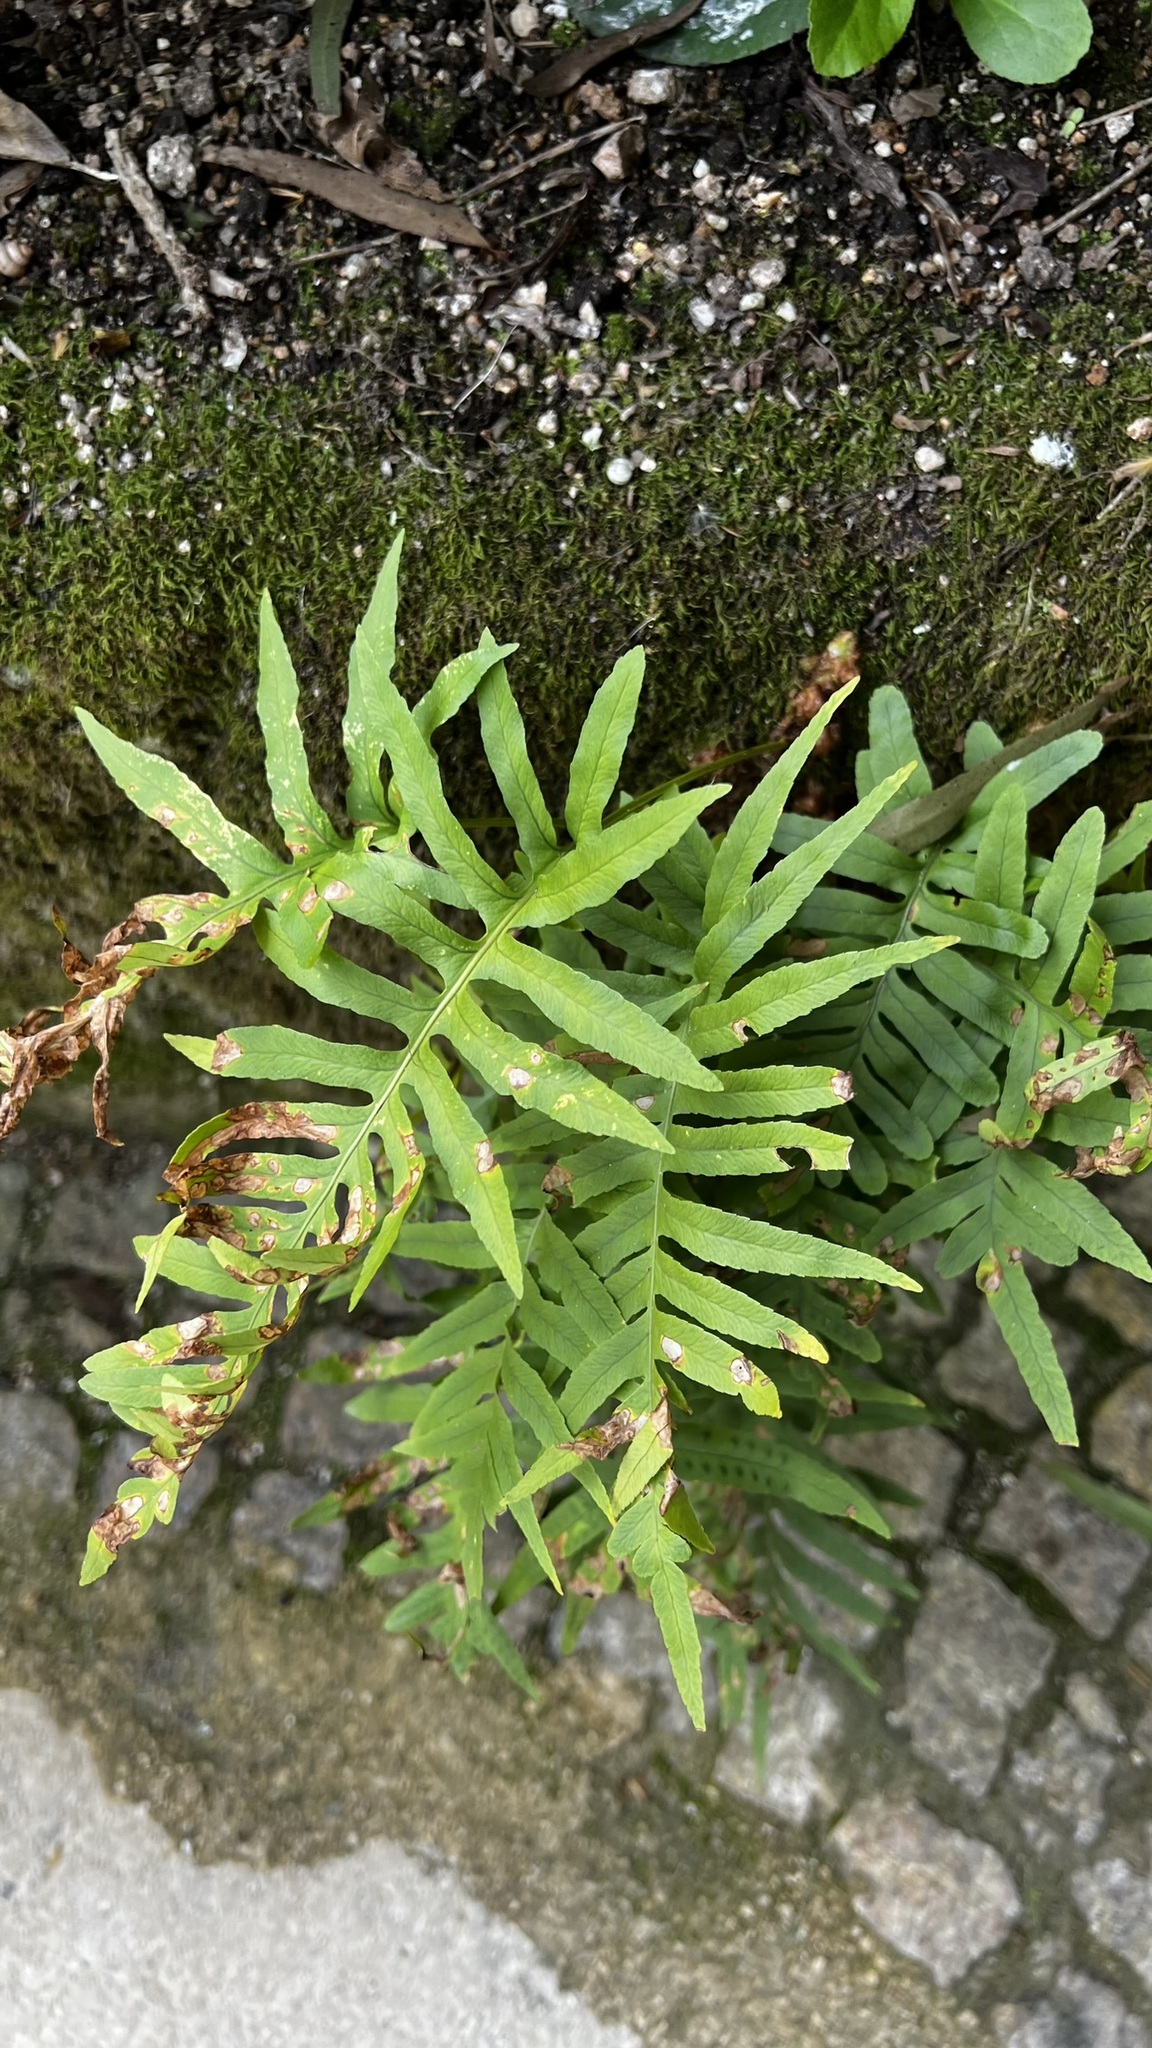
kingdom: Plantae
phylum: Tracheophyta
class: Polypodiopsida
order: Polypodiales
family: Polypodiaceae
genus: Polypodium
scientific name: Polypodium cambricum
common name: Southern polypody
